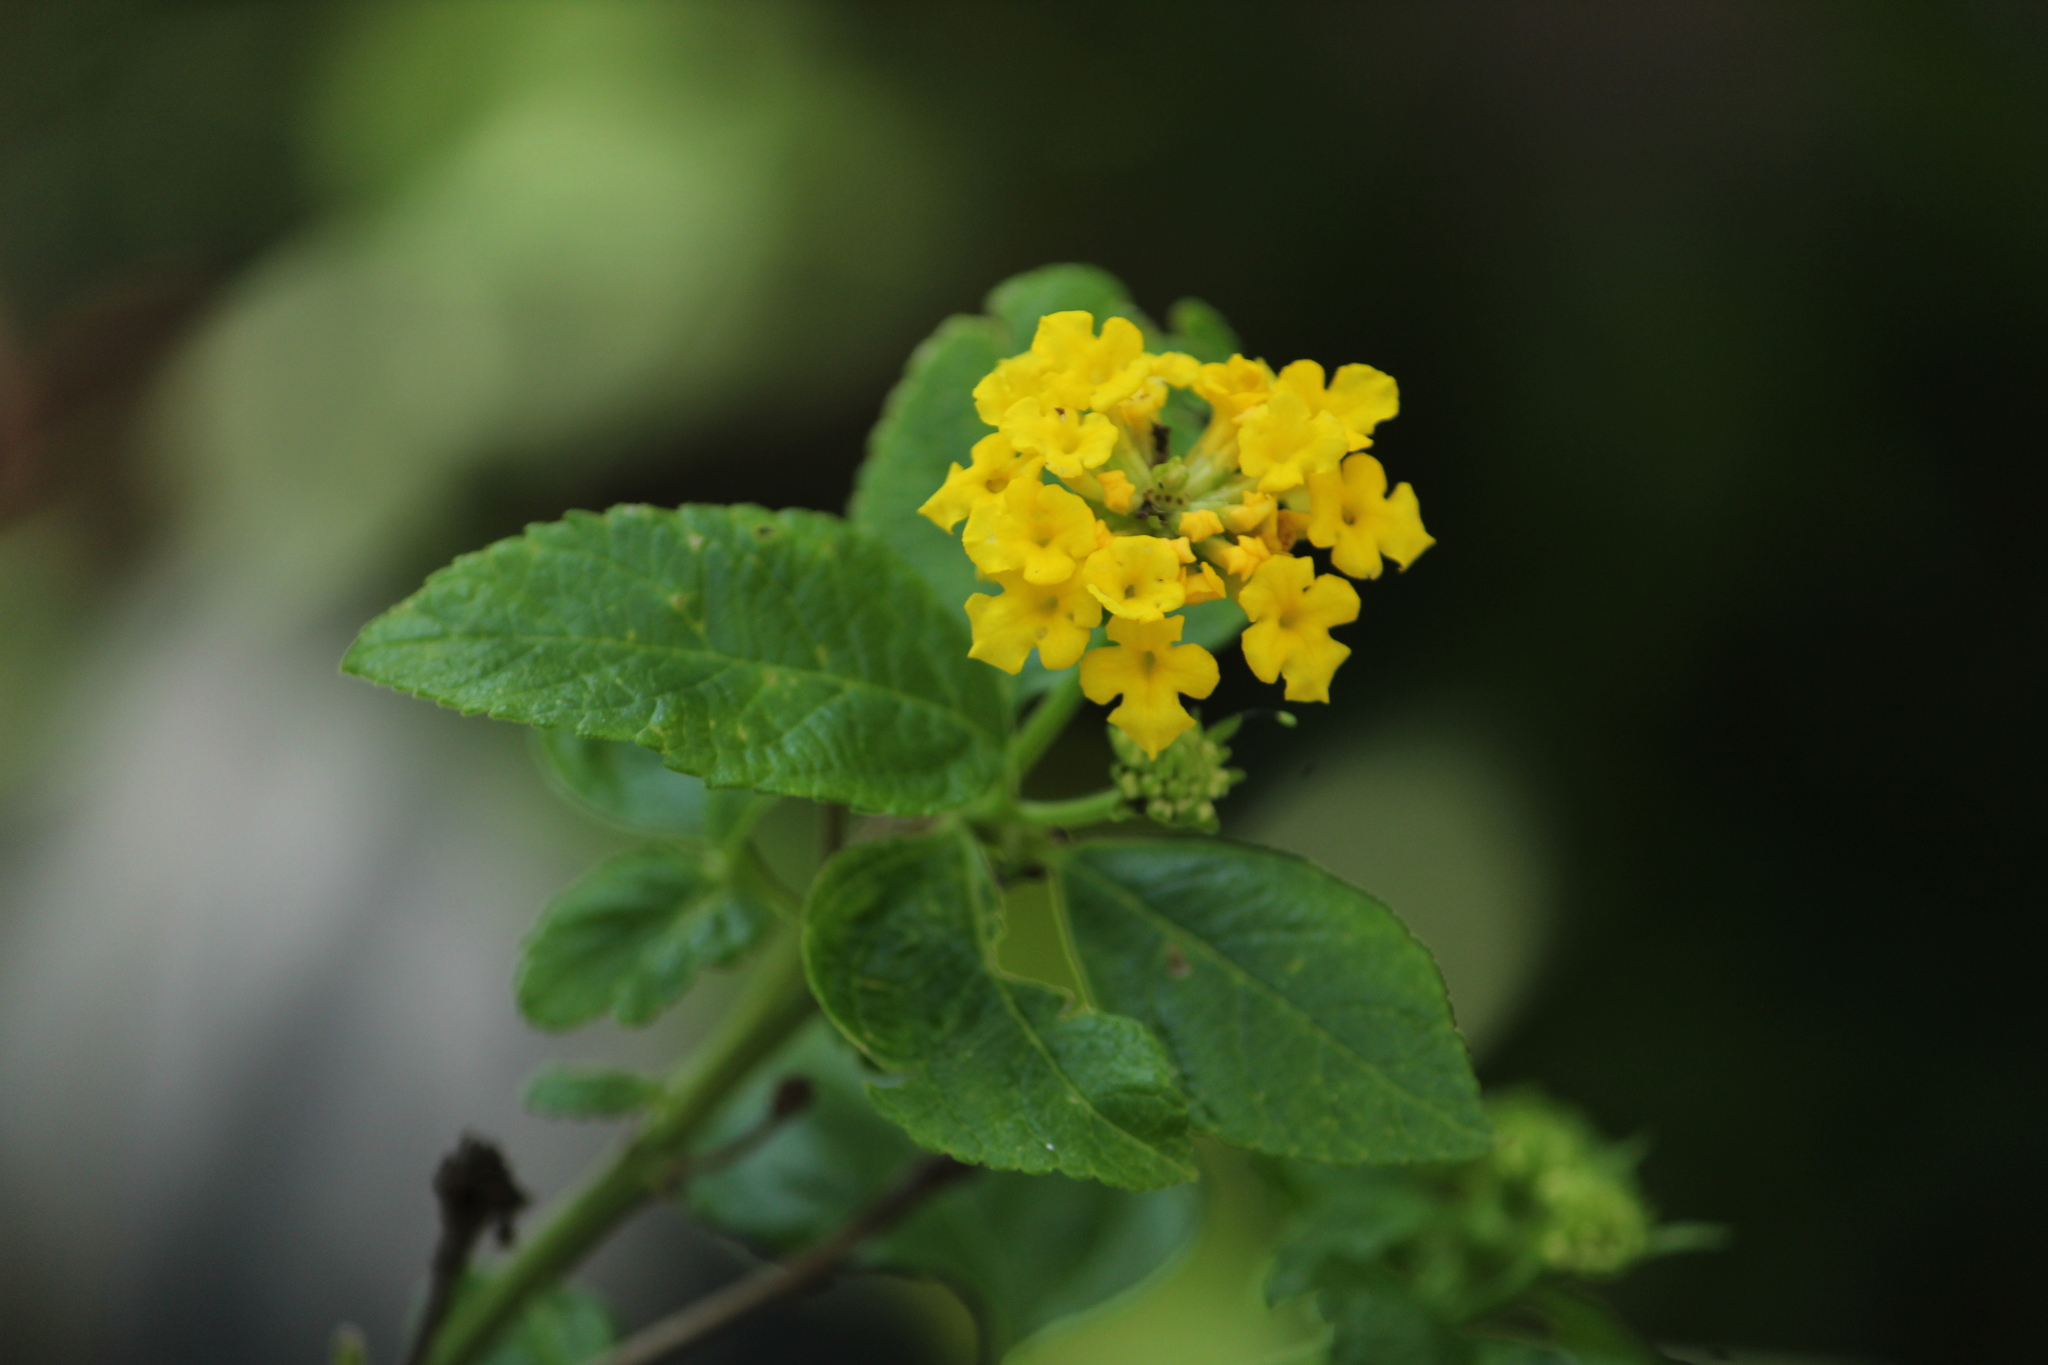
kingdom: Plantae
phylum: Tracheophyta
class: Magnoliopsida
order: Lamiales
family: Verbenaceae
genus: Lantana
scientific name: Lantana camara
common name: Lantana
